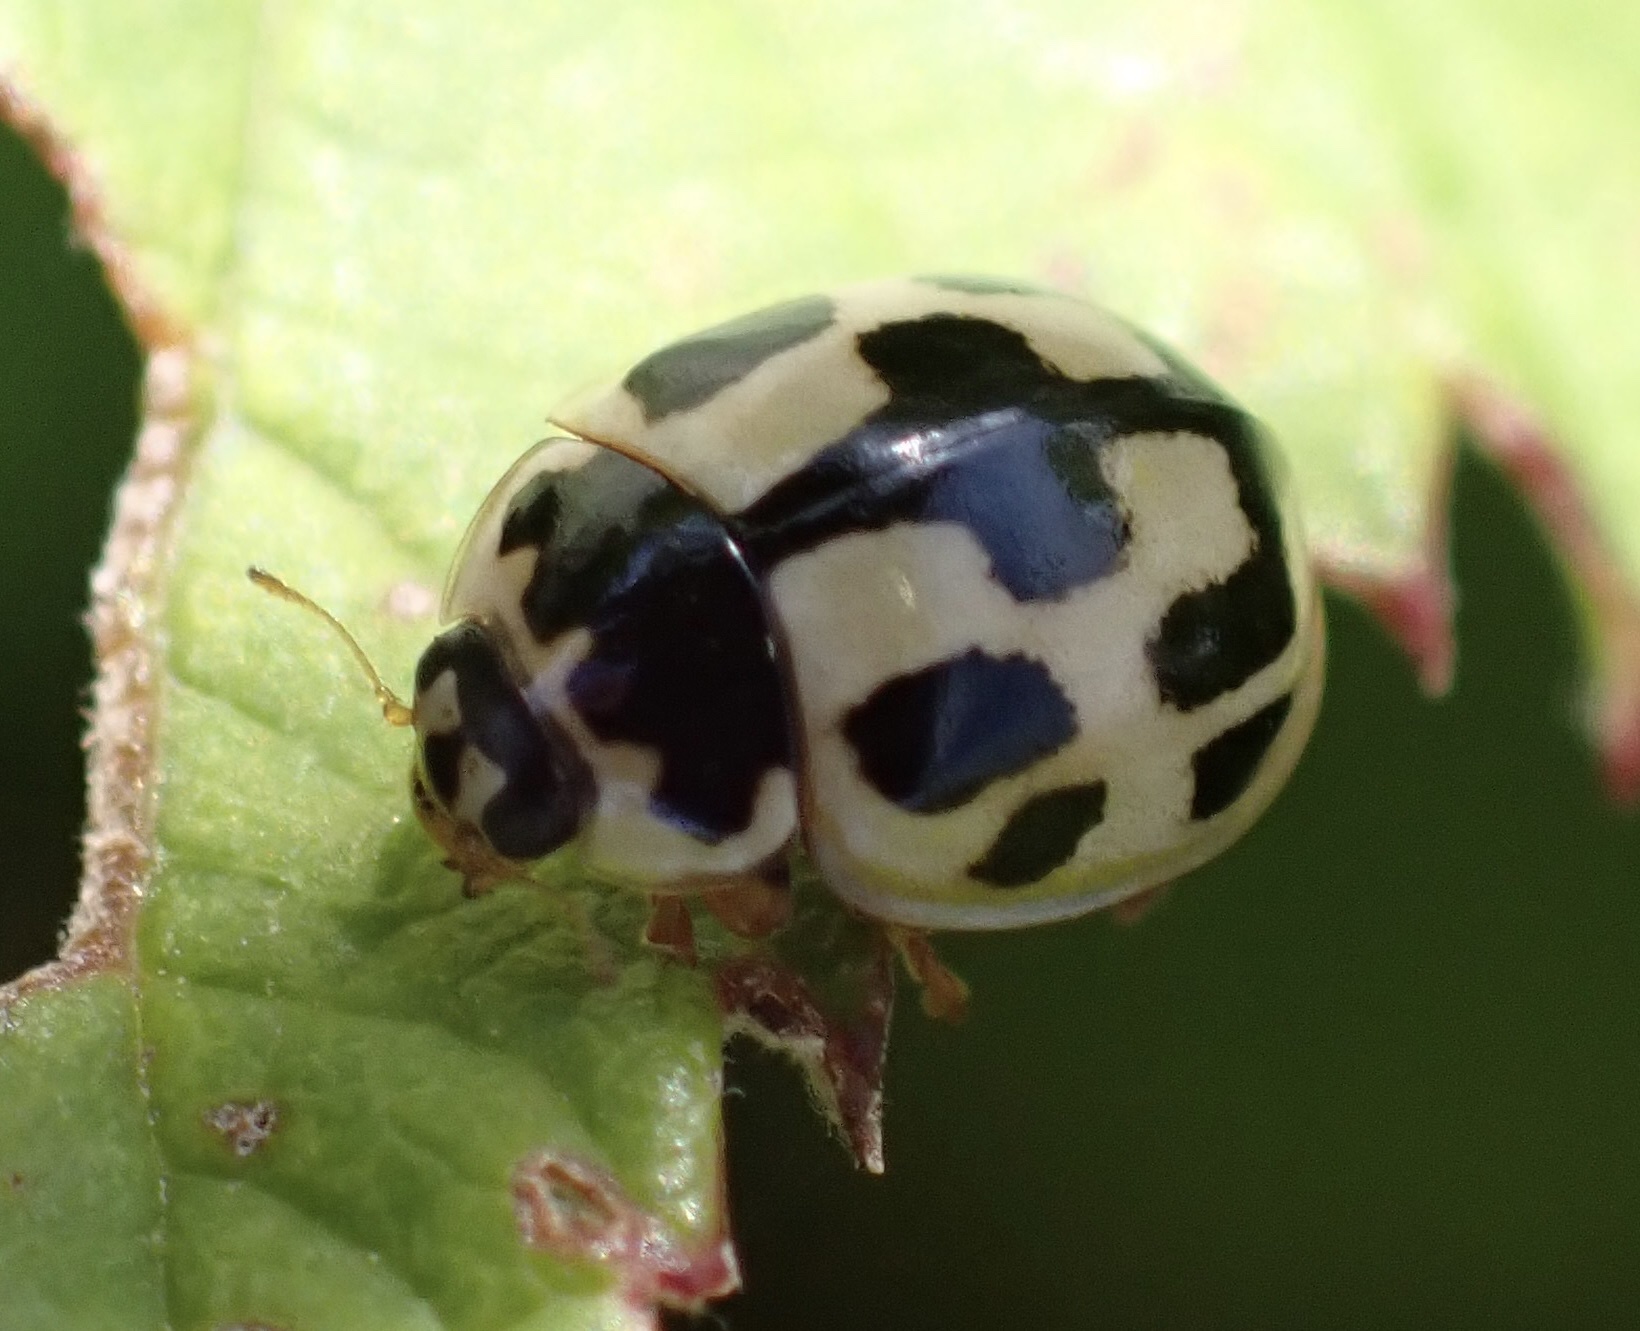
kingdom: Animalia
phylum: Arthropoda
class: Insecta
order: Coleoptera
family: Coccinellidae
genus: Propylaea
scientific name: Propylaea quatuordecimpunctata
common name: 14-spotted ladybird beetle
